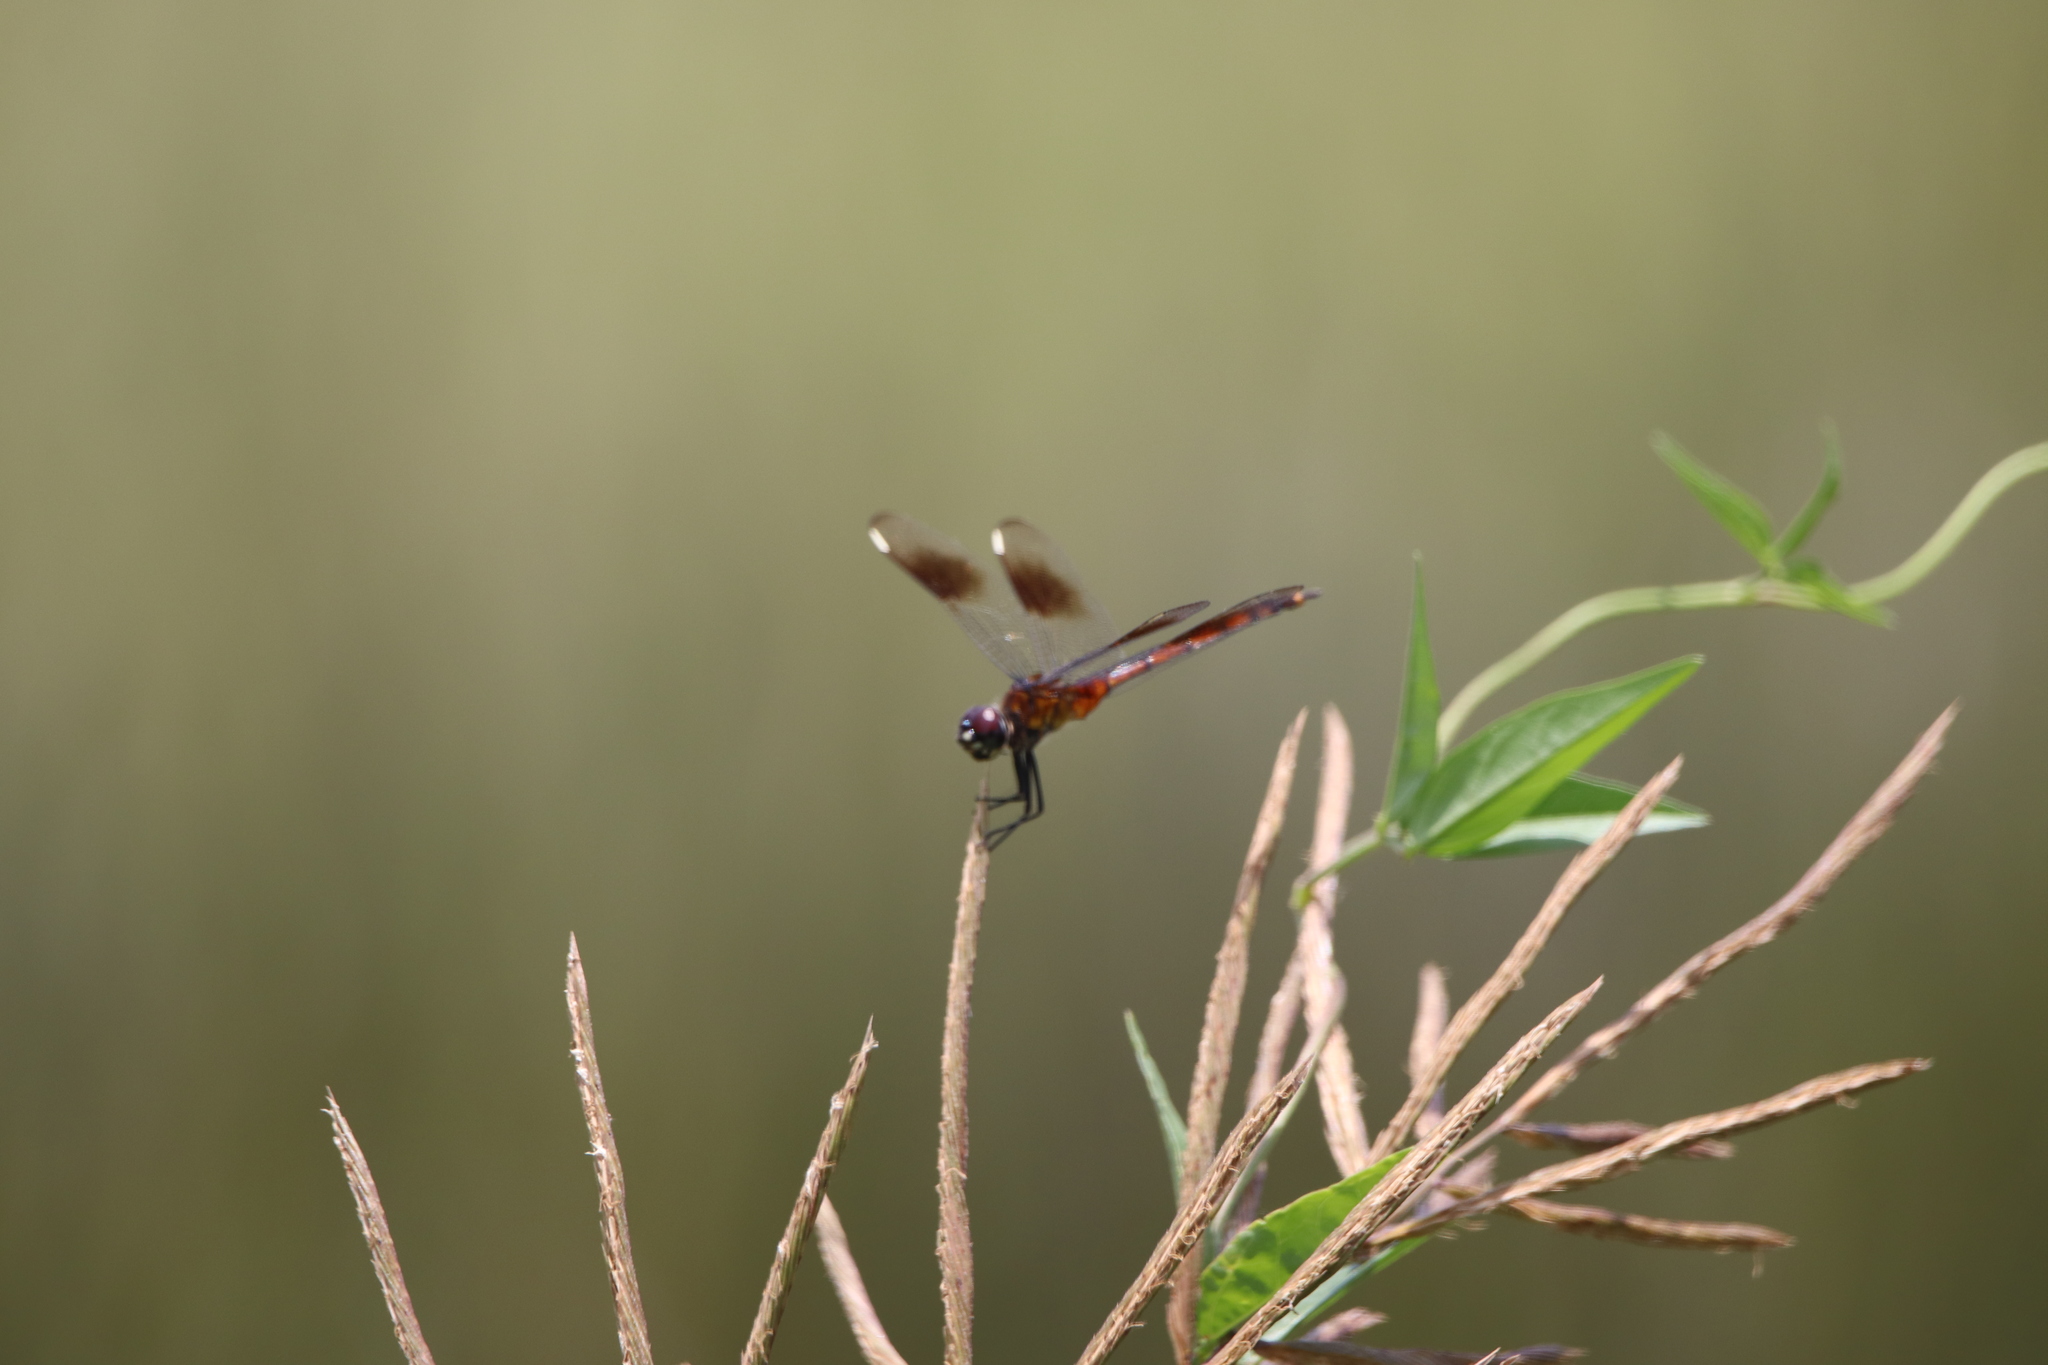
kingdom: Animalia
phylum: Arthropoda
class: Insecta
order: Odonata
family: Libellulidae
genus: Brachymesia
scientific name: Brachymesia gravida
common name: Four-spotted pennant
